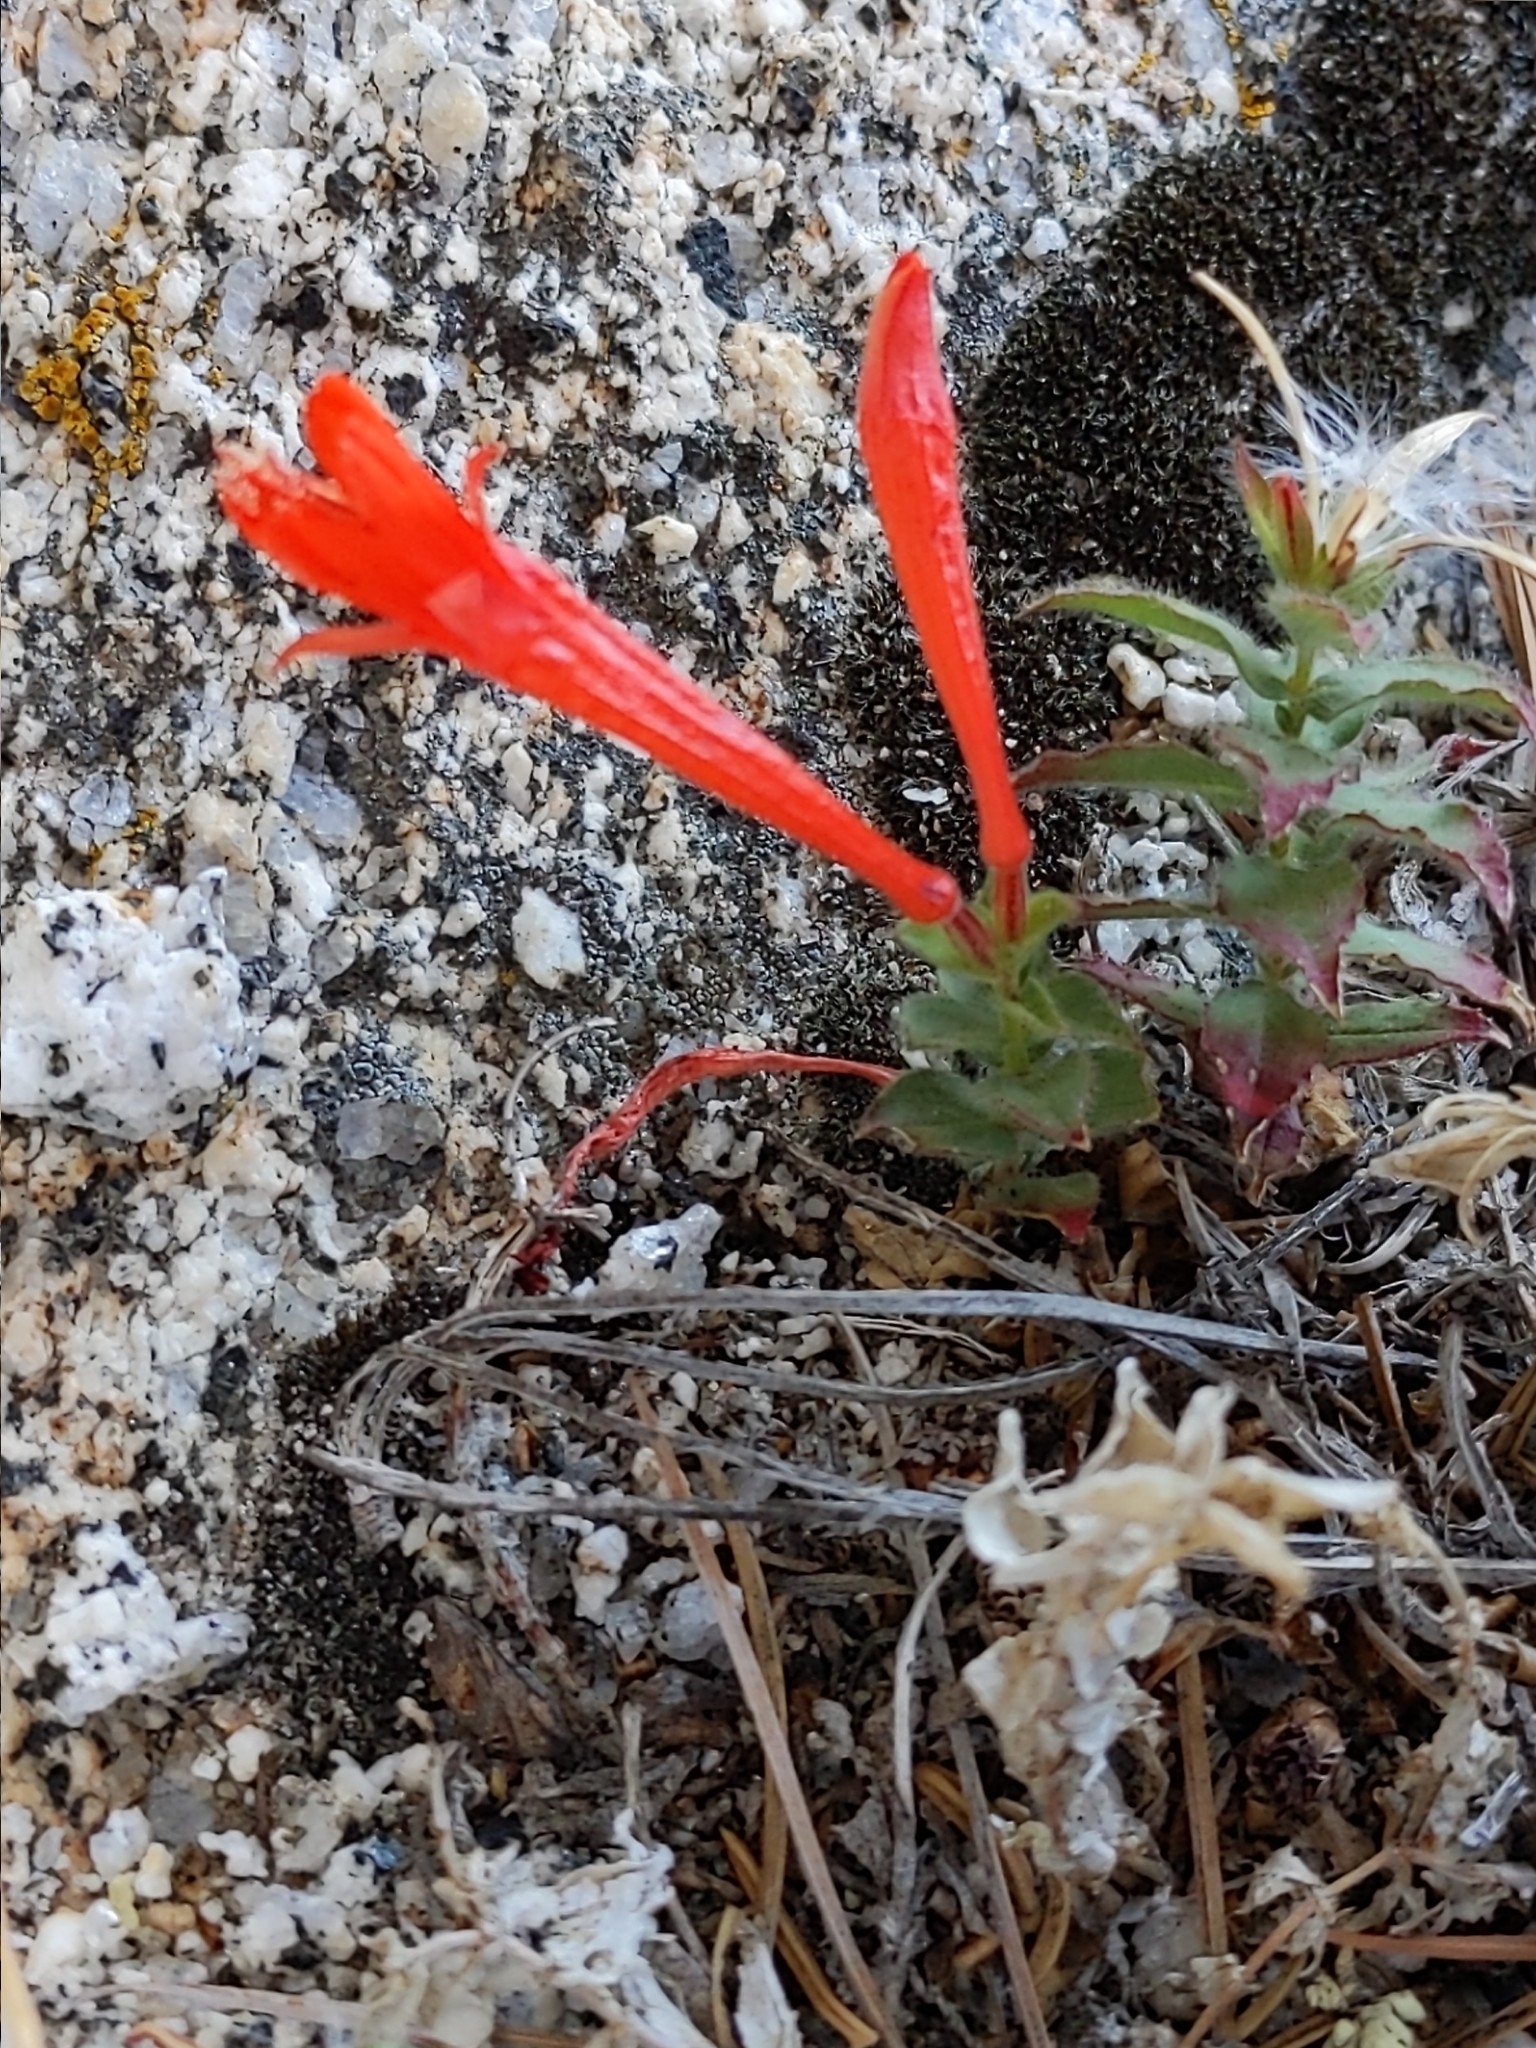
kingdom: Plantae
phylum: Tracheophyta
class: Magnoliopsida
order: Myrtales
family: Onagraceae
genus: Epilobium
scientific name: Epilobium canum
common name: California-fuchsia
